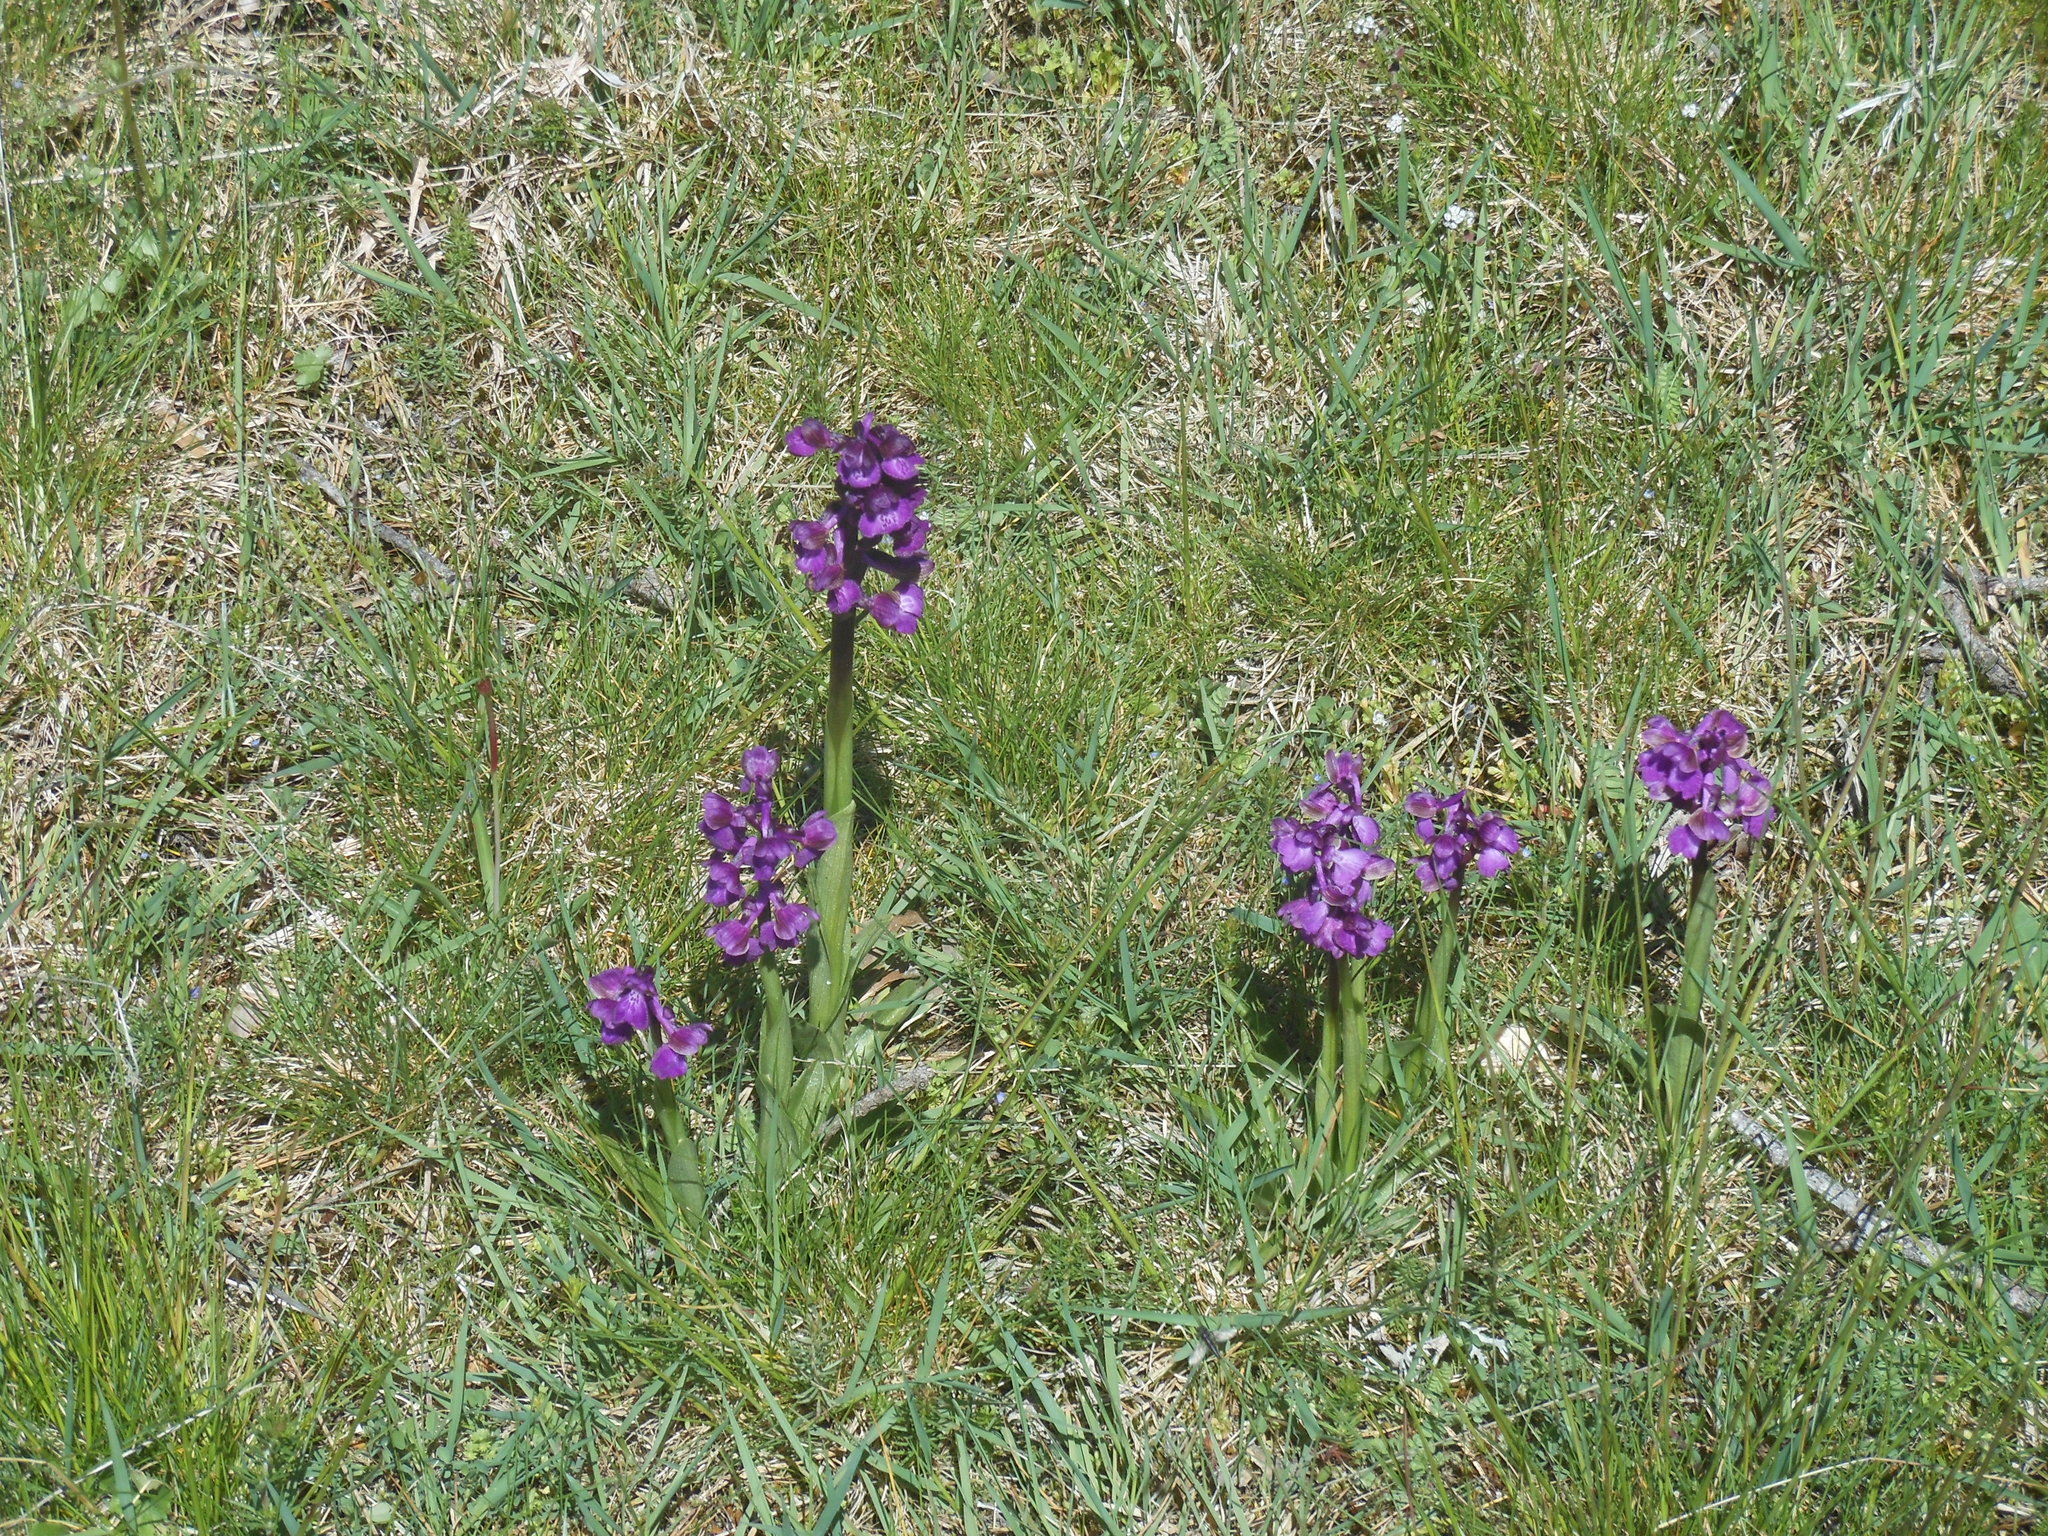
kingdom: Plantae
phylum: Tracheophyta
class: Liliopsida
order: Asparagales
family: Orchidaceae
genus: Anacamptis
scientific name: Anacamptis morio
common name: Green-winged orchid
